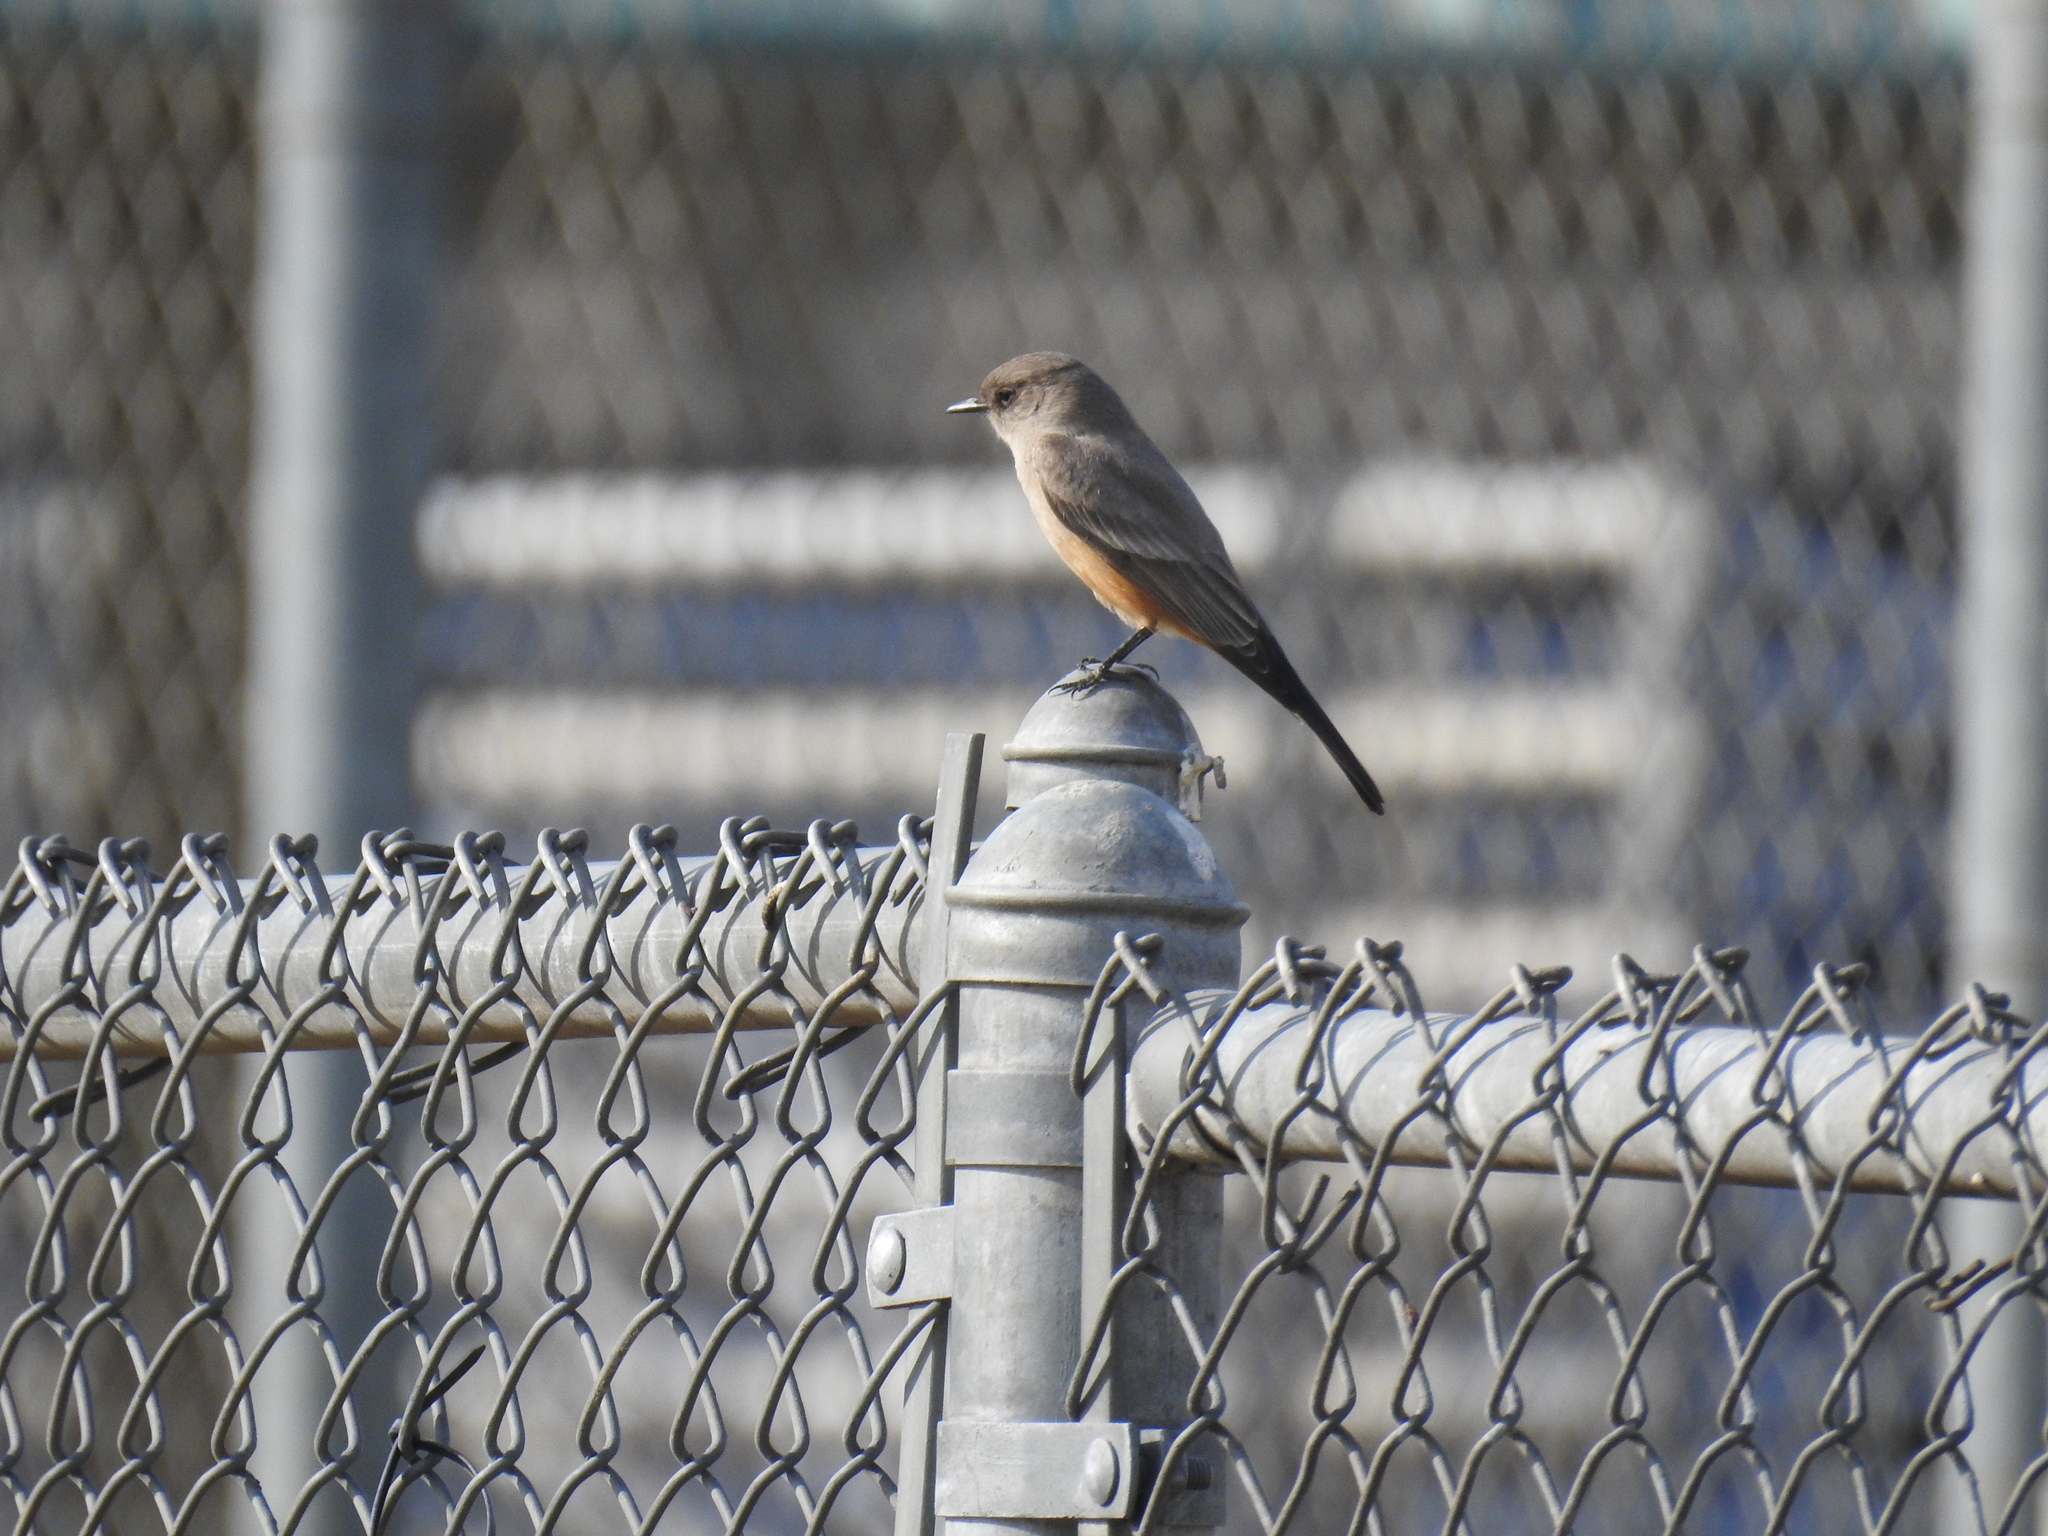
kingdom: Animalia
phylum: Chordata
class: Aves
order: Passeriformes
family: Tyrannidae
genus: Sayornis
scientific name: Sayornis saya
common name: Say's phoebe
